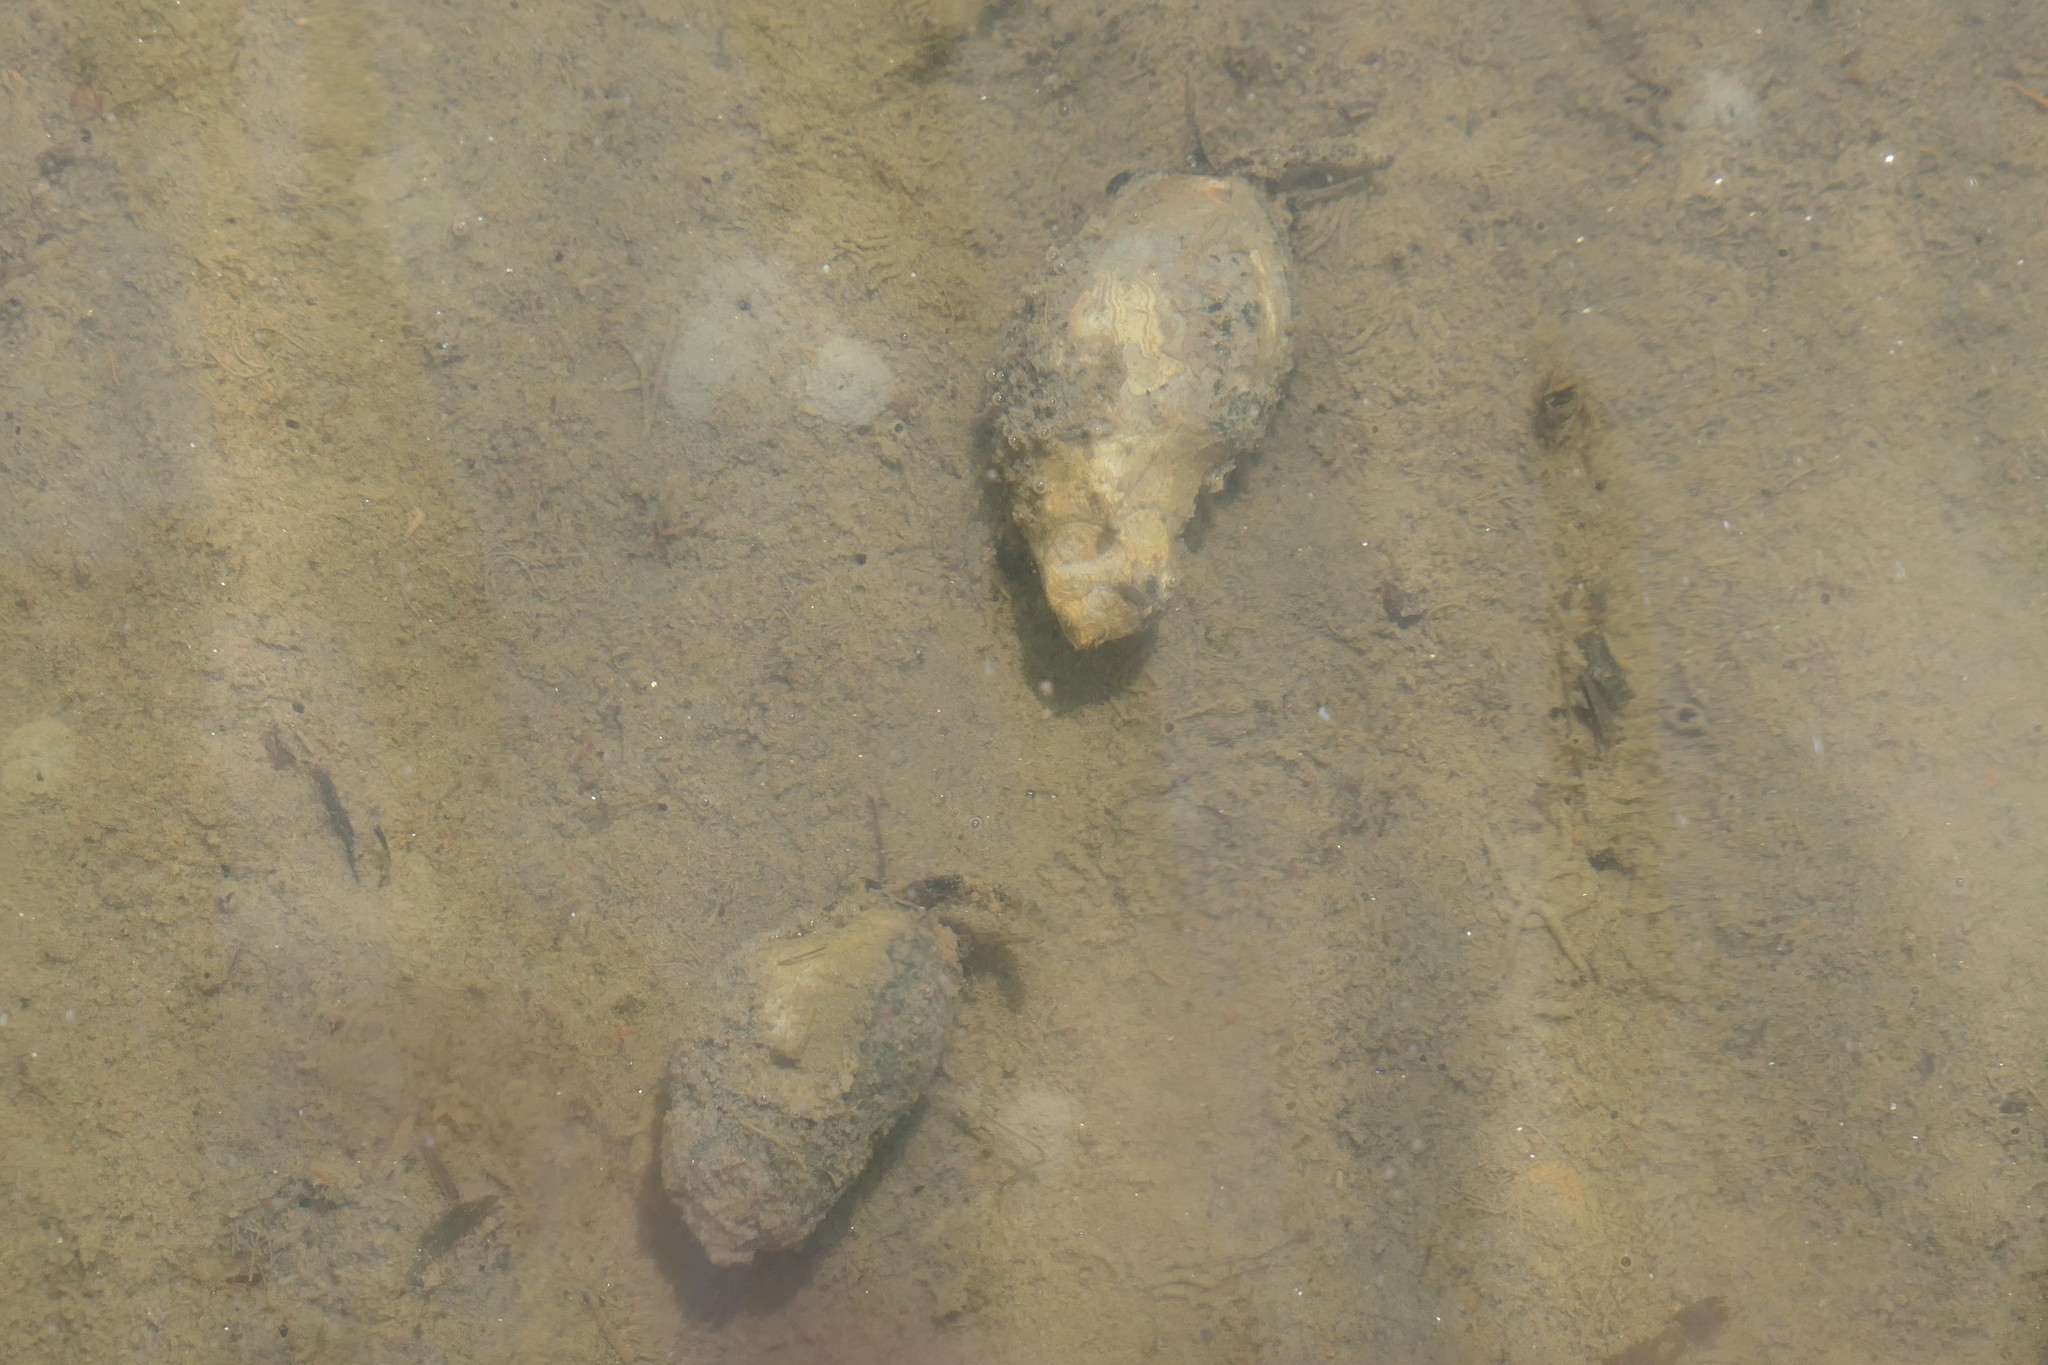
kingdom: Animalia
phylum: Mollusca
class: Gastropoda
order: Neogastropoda
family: Nassariidae
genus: Ilyanassa
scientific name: Ilyanassa obsoleta
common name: Eastern mudsnail
